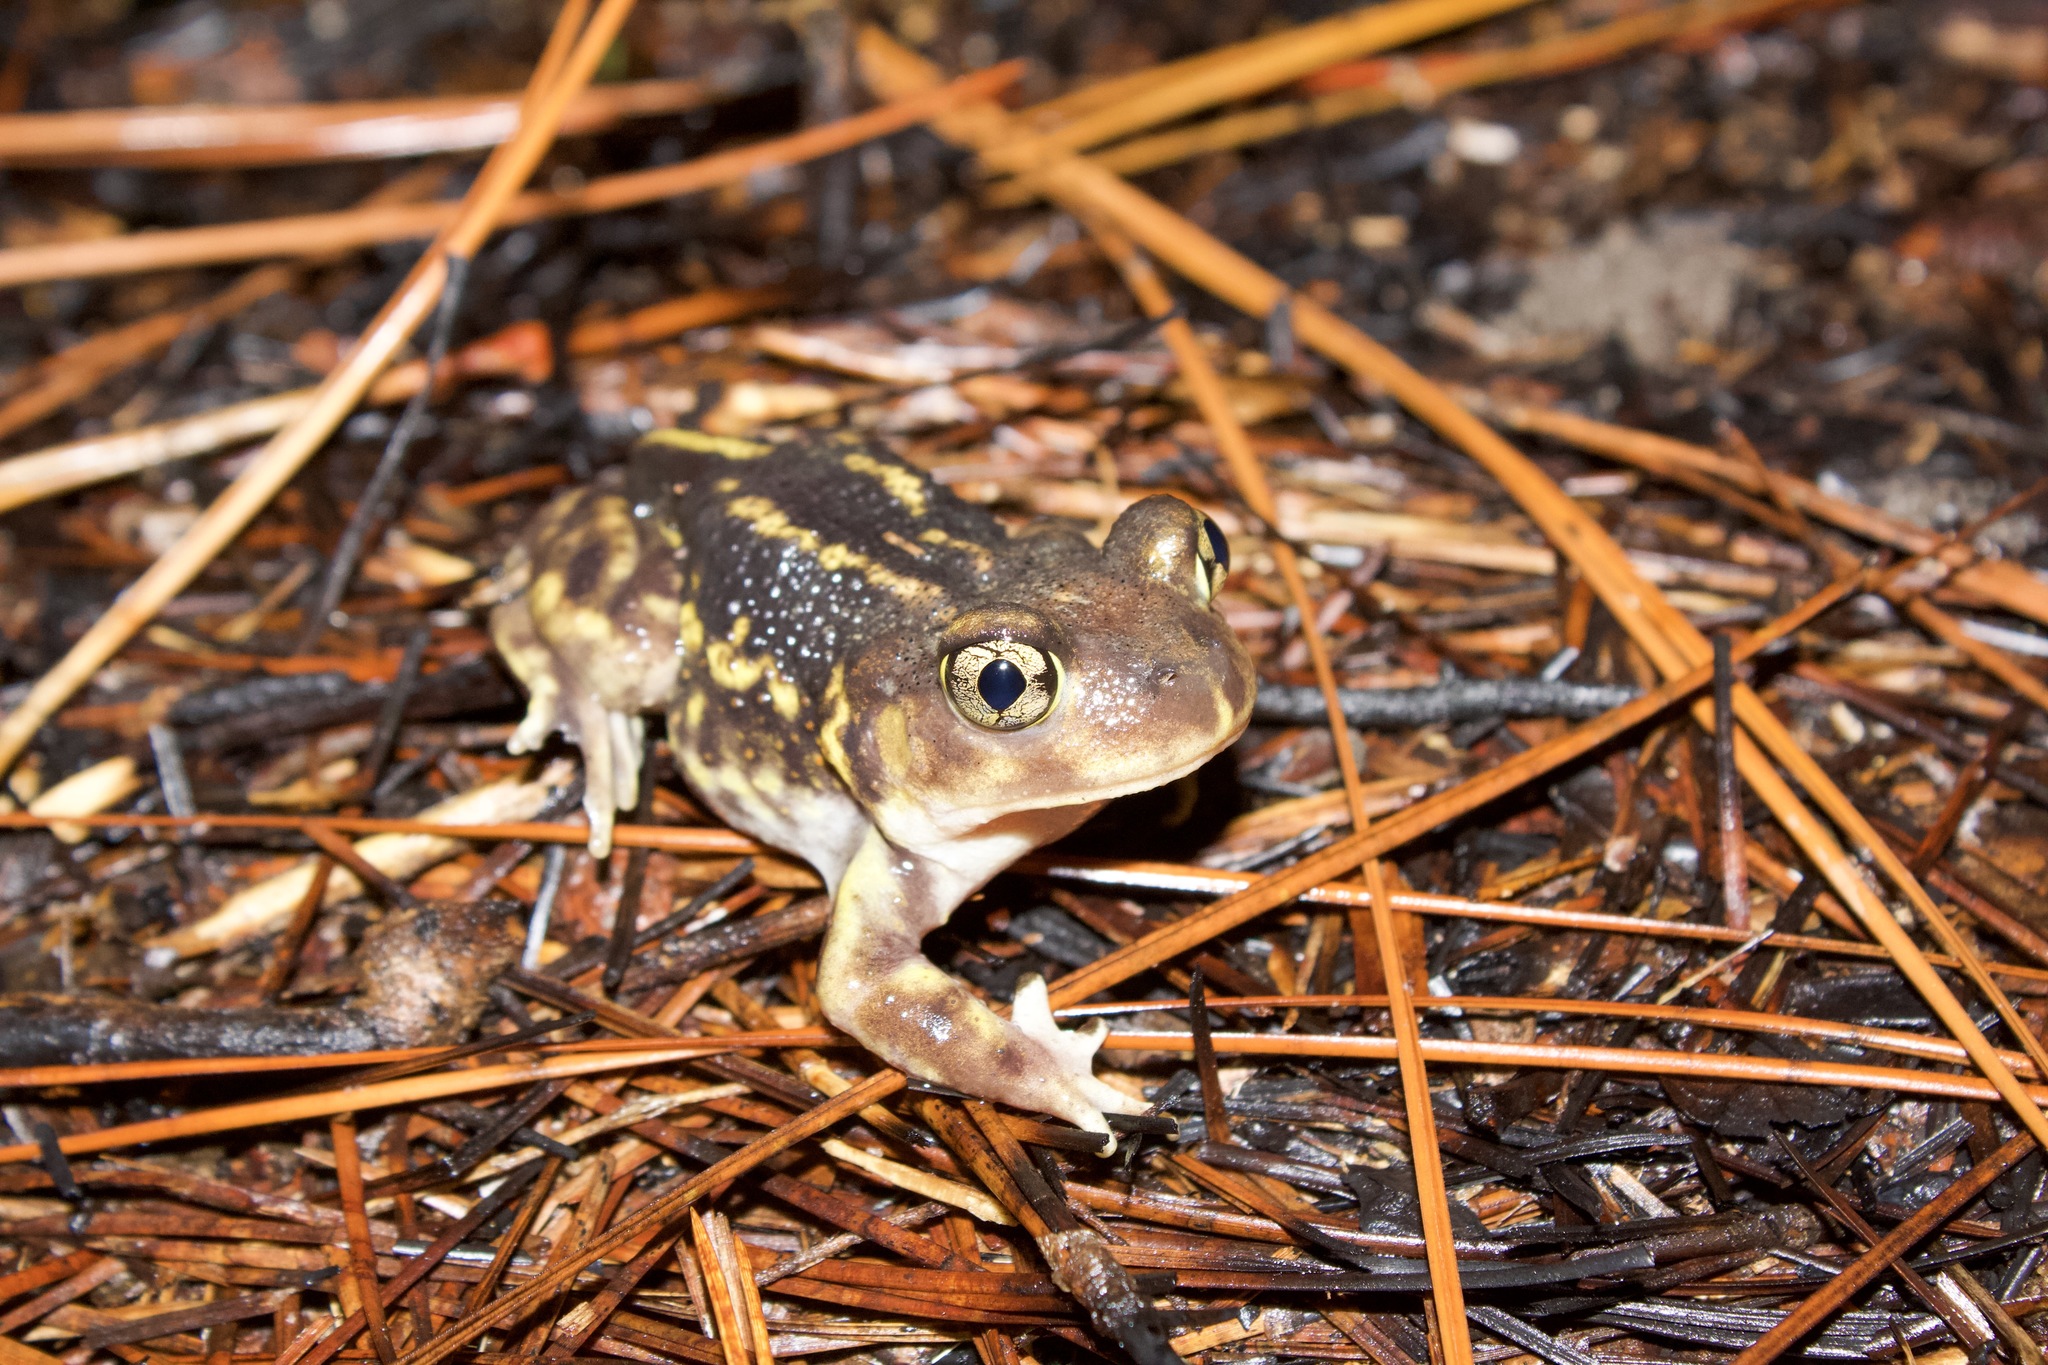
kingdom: Animalia
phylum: Chordata
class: Amphibia
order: Anura
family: Scaphiopodidae
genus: Scaphiopus
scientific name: Scaphiopus holbrookii
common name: Eastern spadefoot toad
